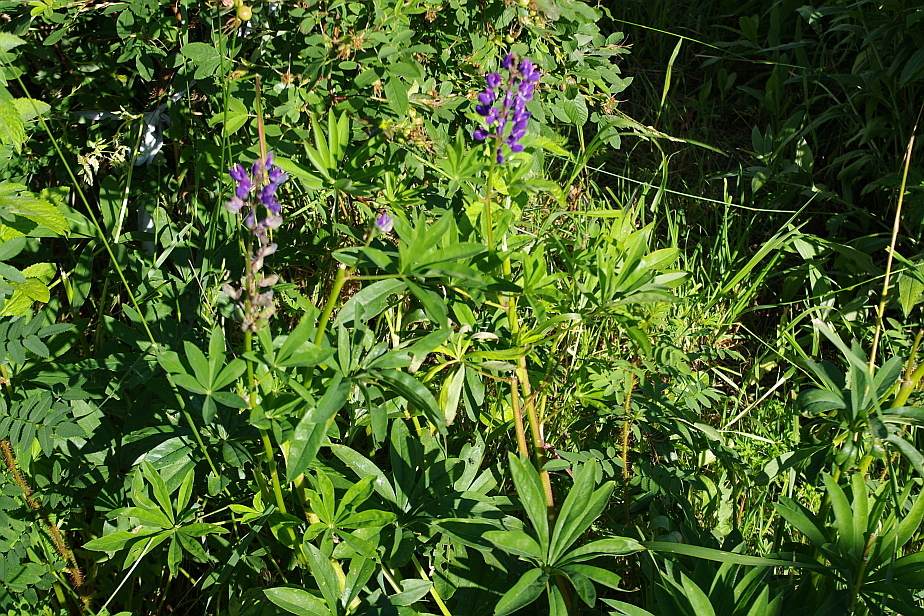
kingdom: Plantae
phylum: Tracheophyta
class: Magnoliopsida
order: Fabales
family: Fabaceae
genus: Lupinus
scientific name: Lupinus polyphyllus
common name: Garden lupin
